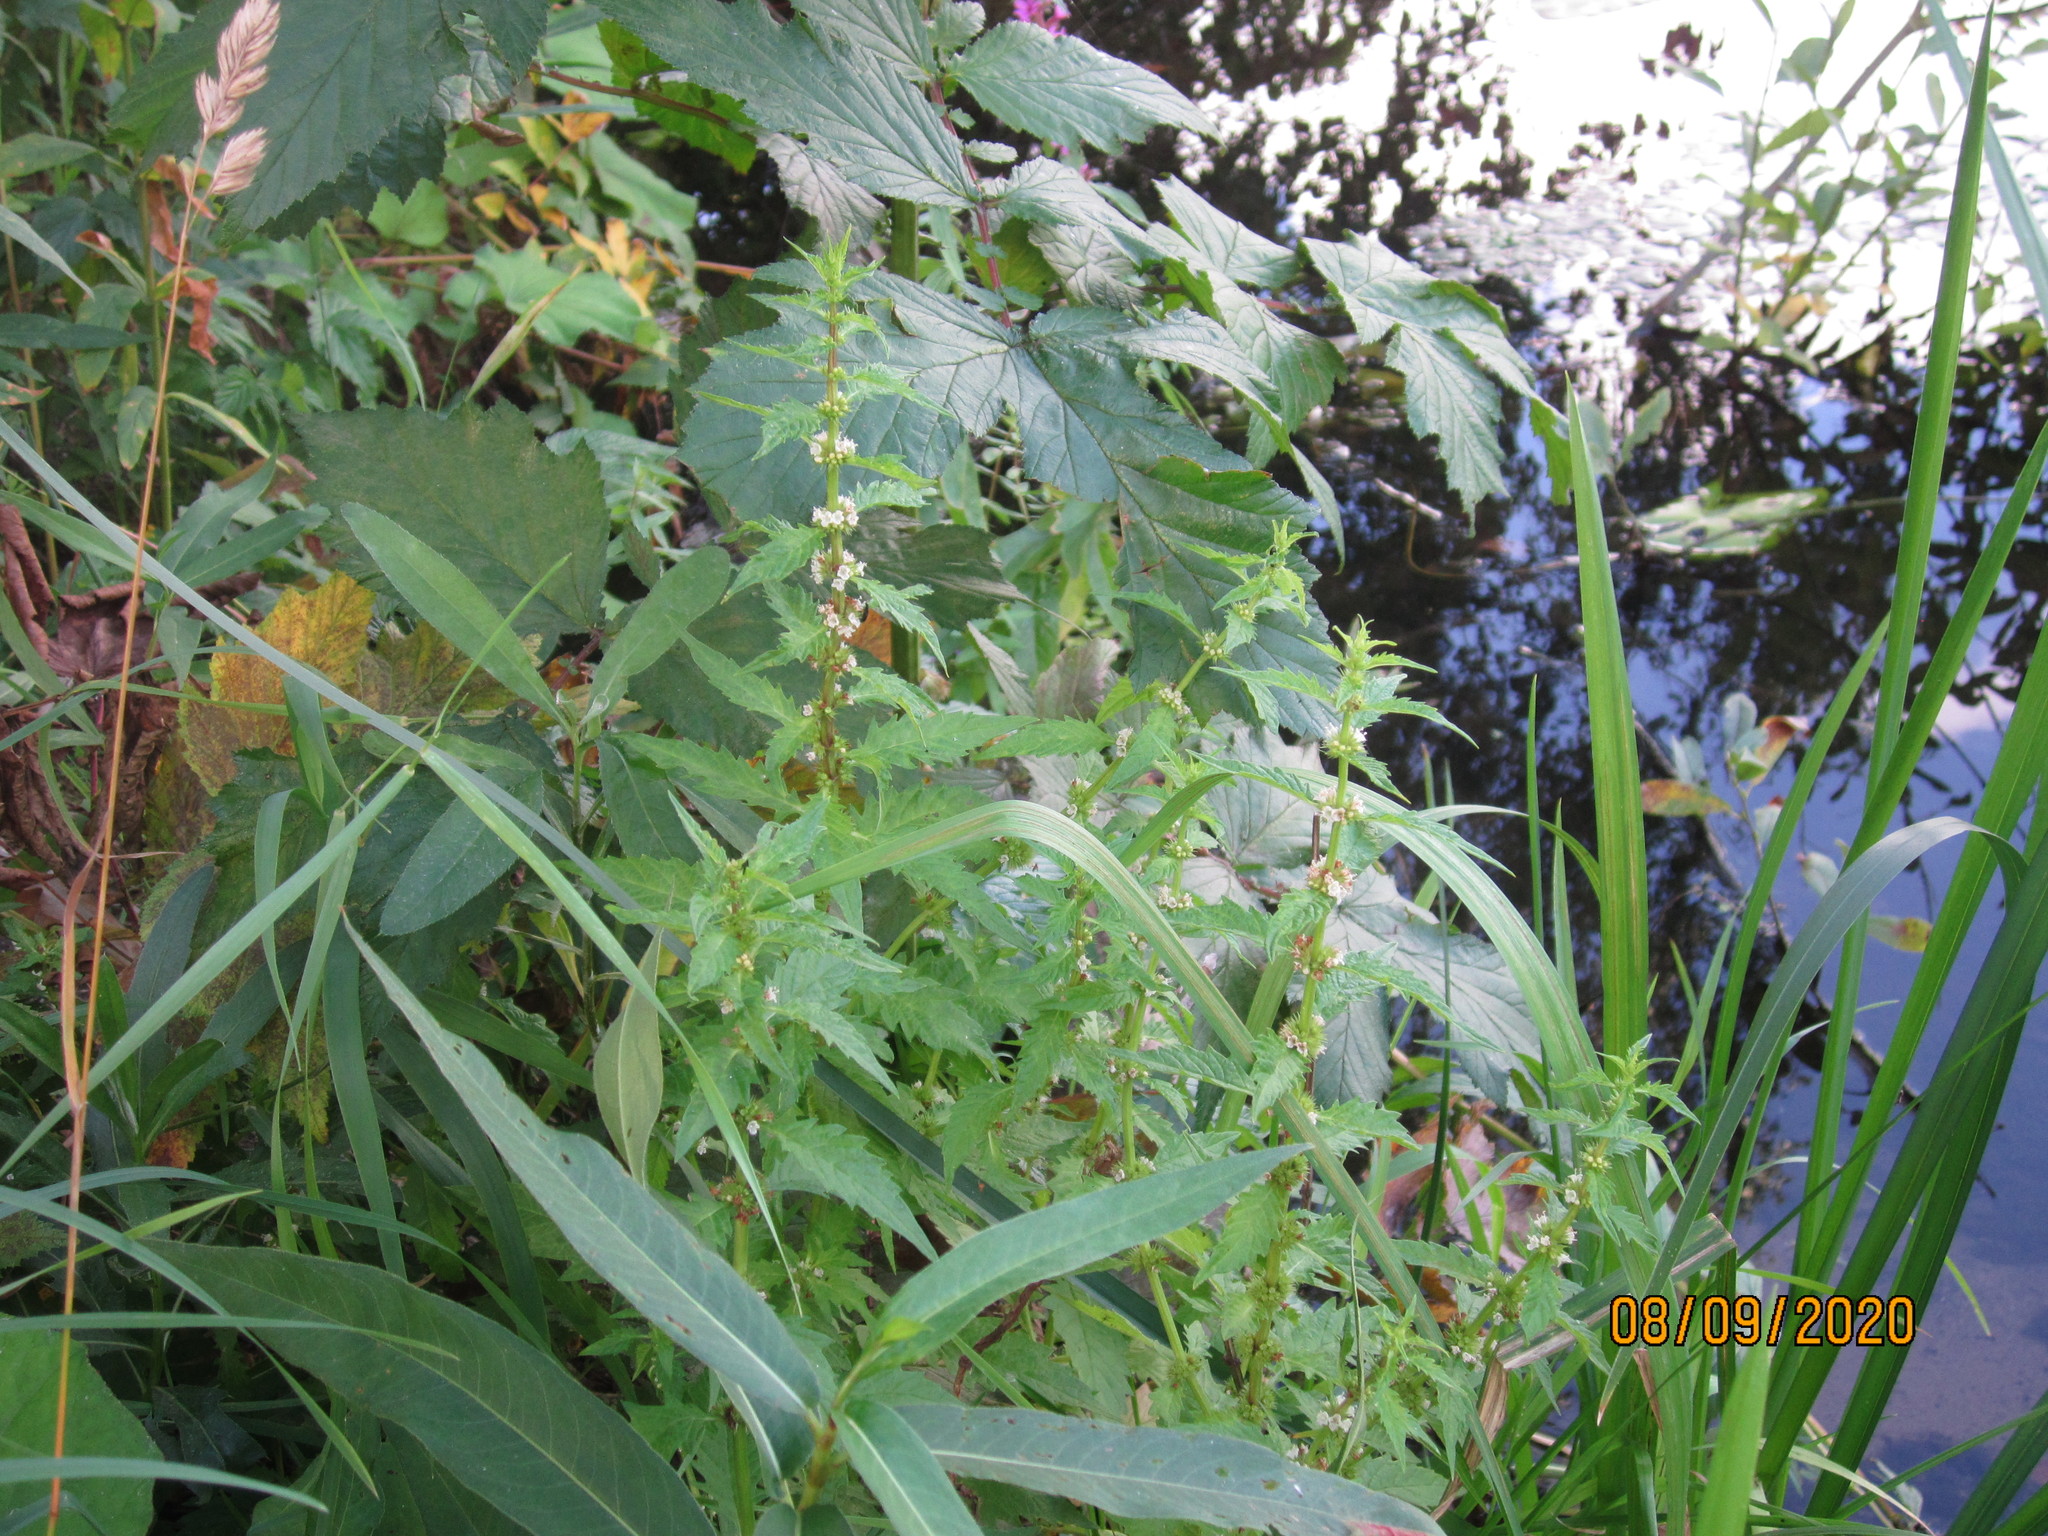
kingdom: Plantae
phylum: Tracheophyta
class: Magnoliopsida
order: Lamiales
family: Lamiaceae
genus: Lycopus
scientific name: Lycopus europaeus
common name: European bugleweed
